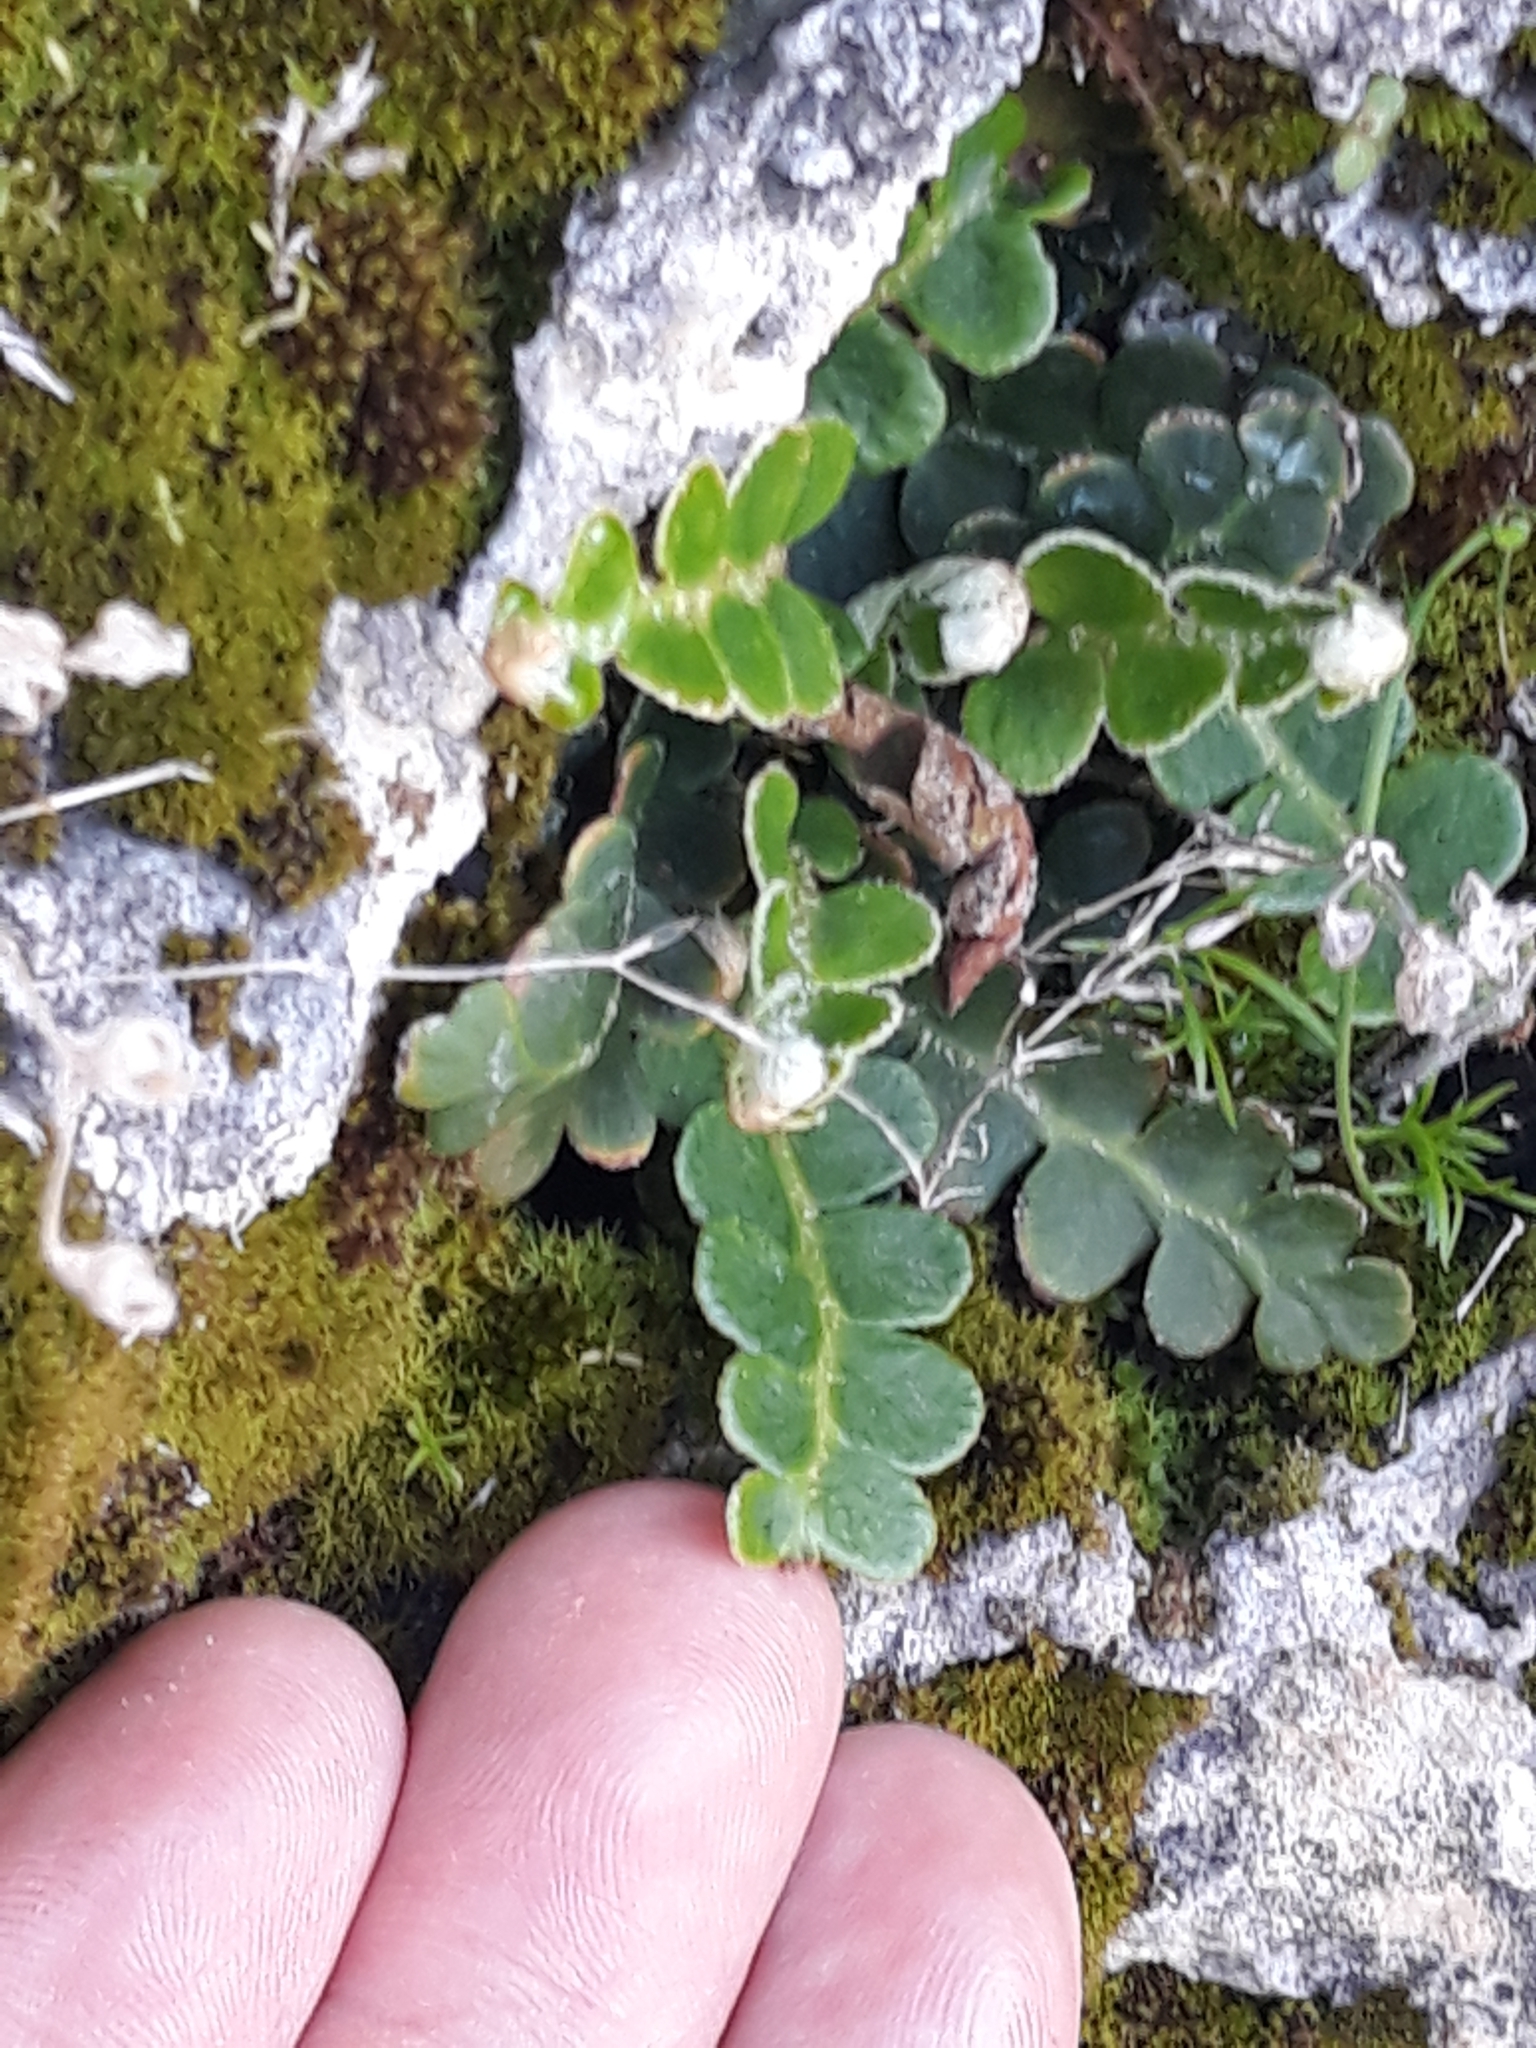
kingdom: Plantae
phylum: Tracheophyta
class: Polypodiopsida
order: Polypodiales
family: Aspleniaceae
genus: Asplenium
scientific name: Asplenium ceterach
